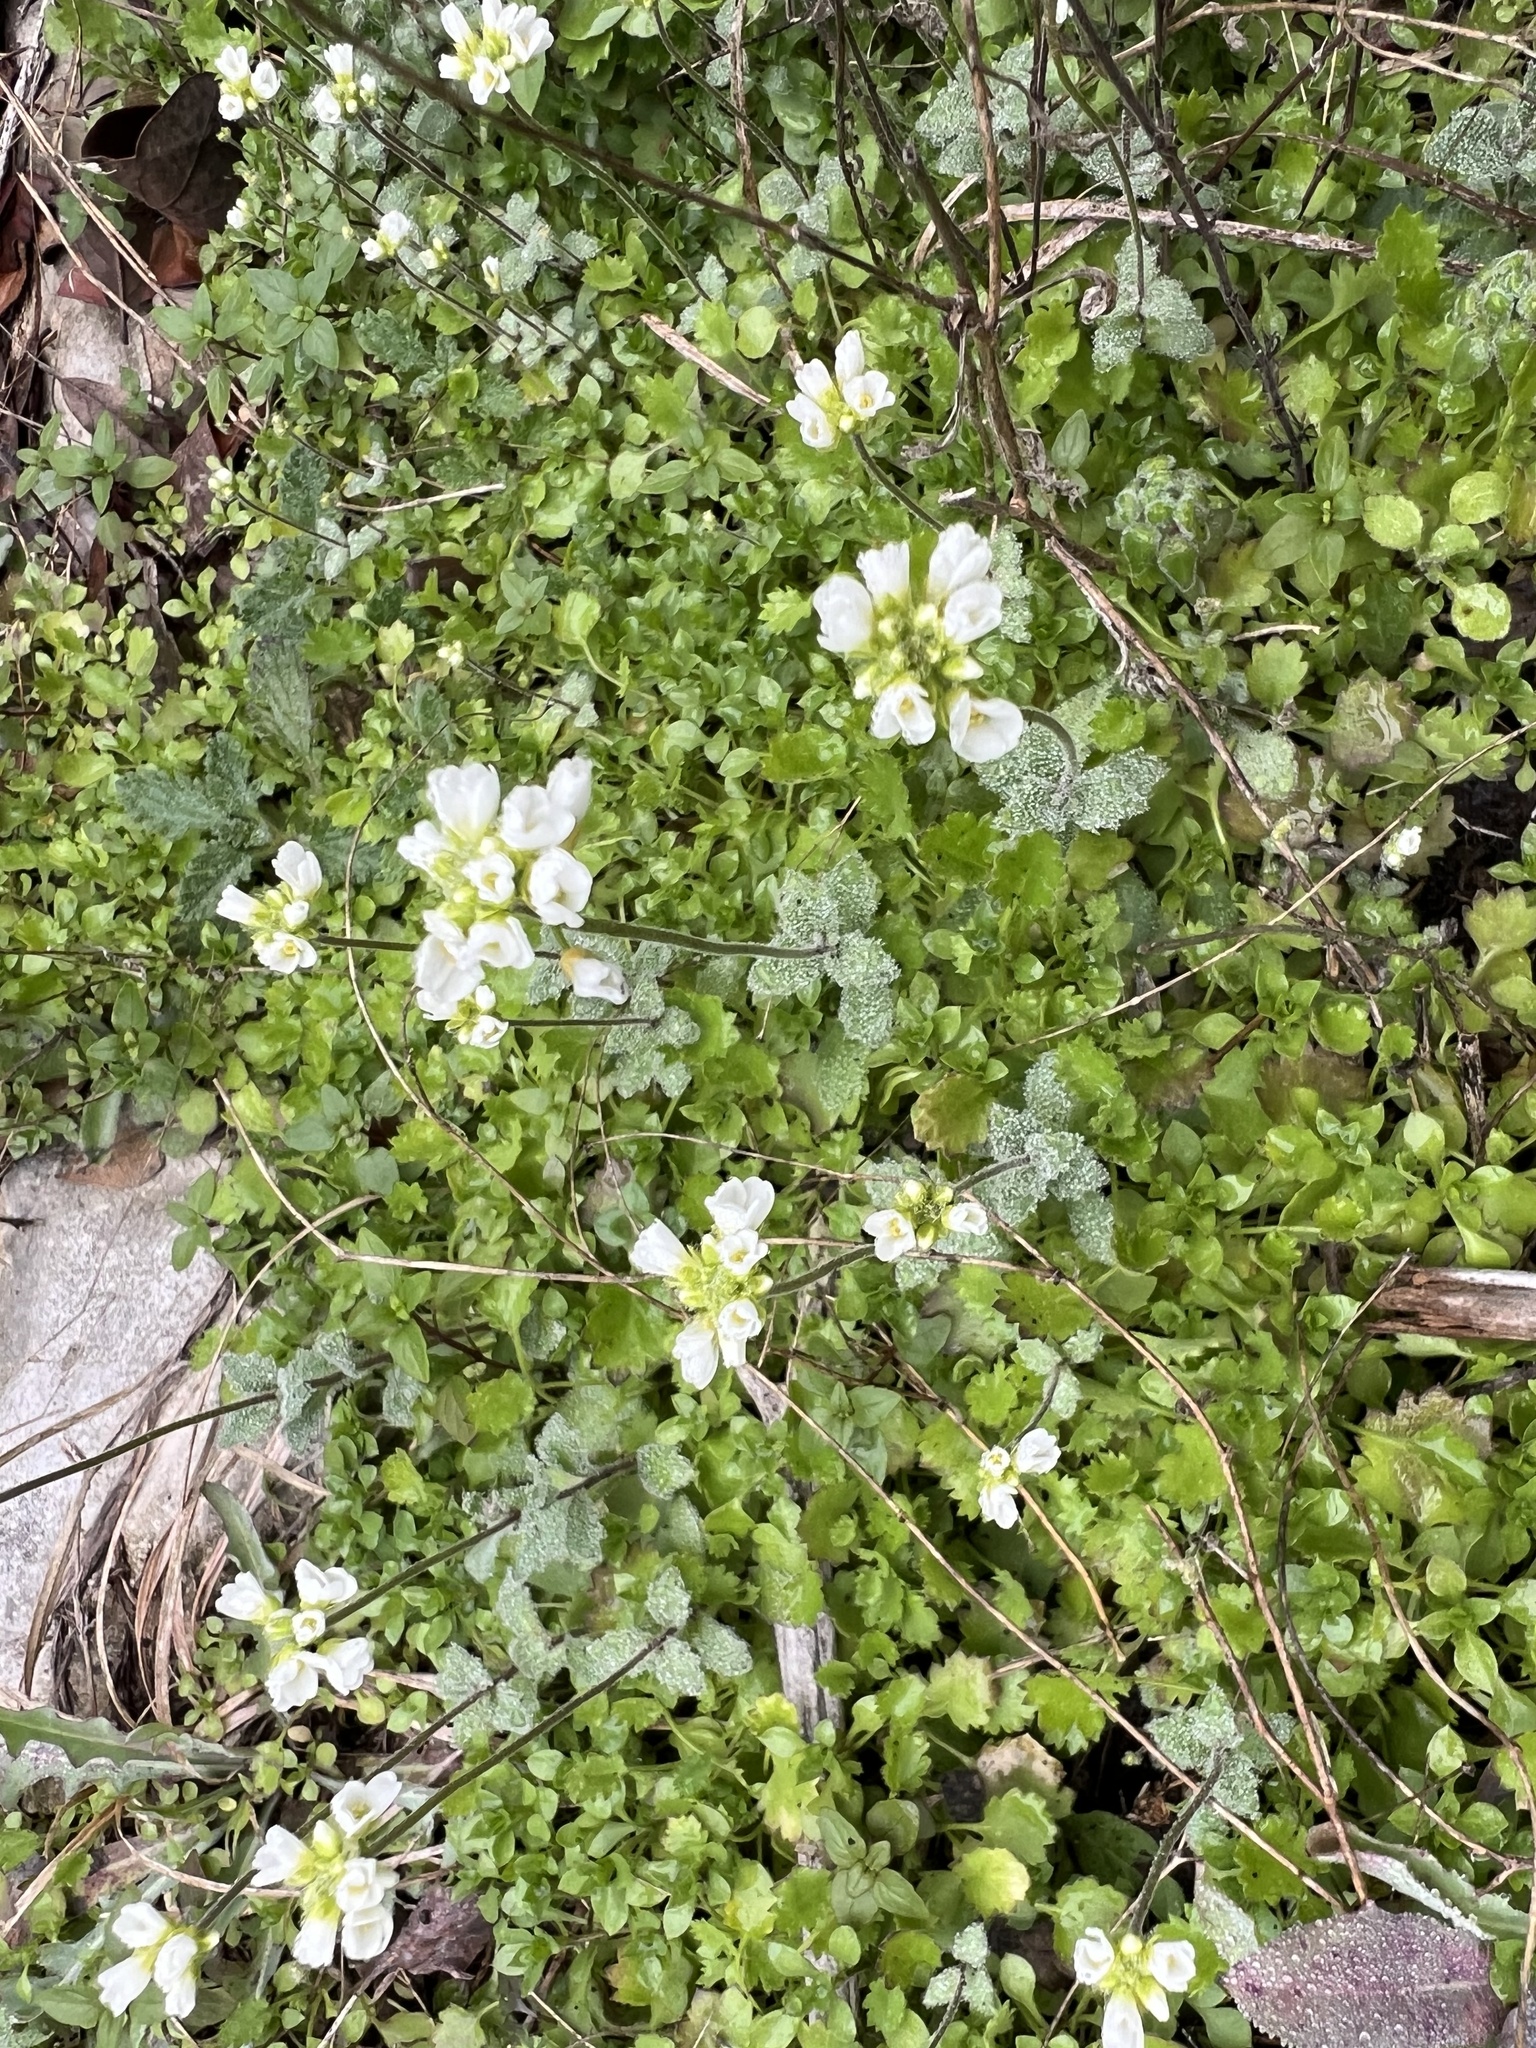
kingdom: Plantae
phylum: Tracheophyta
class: Magnoliopsida
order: Brassicales
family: Brassicaceae
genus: Tomostima
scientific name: Tomostima cuneifolia
